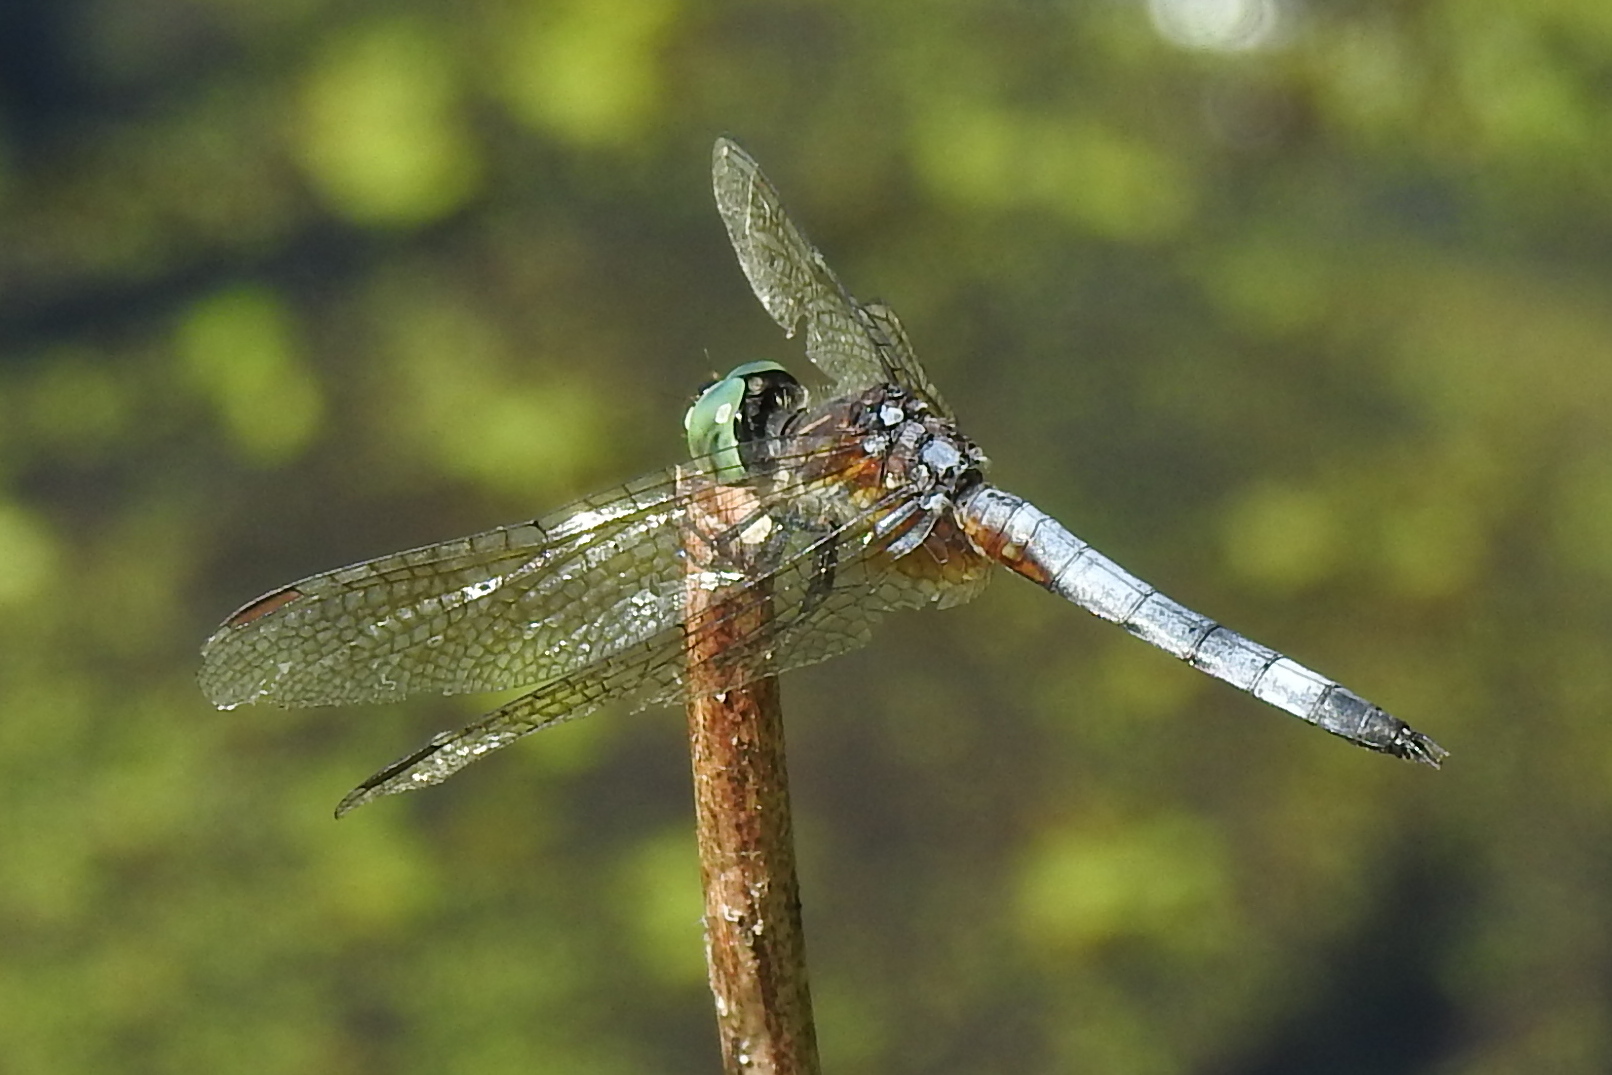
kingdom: Animalia
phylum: Arthropoda
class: Insecta
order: Odonata
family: Libellulidae
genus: Pachydiplax
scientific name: Pachydiplax longipennis
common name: Blue dasher
